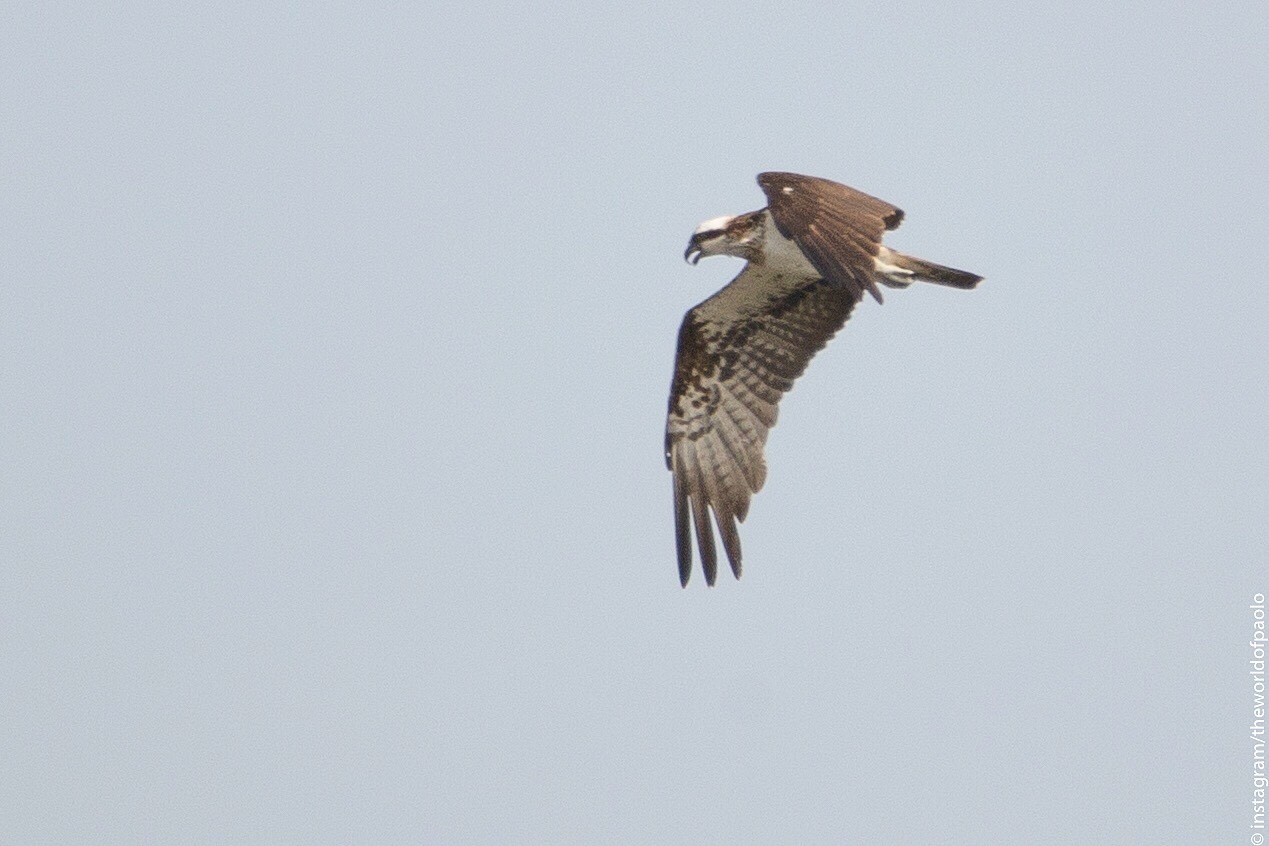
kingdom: Animalia
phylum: Chordata
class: Aves
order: Accipitriformes
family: Pandionidae
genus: Pandion
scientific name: Pandion haliaetus
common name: Osprey
